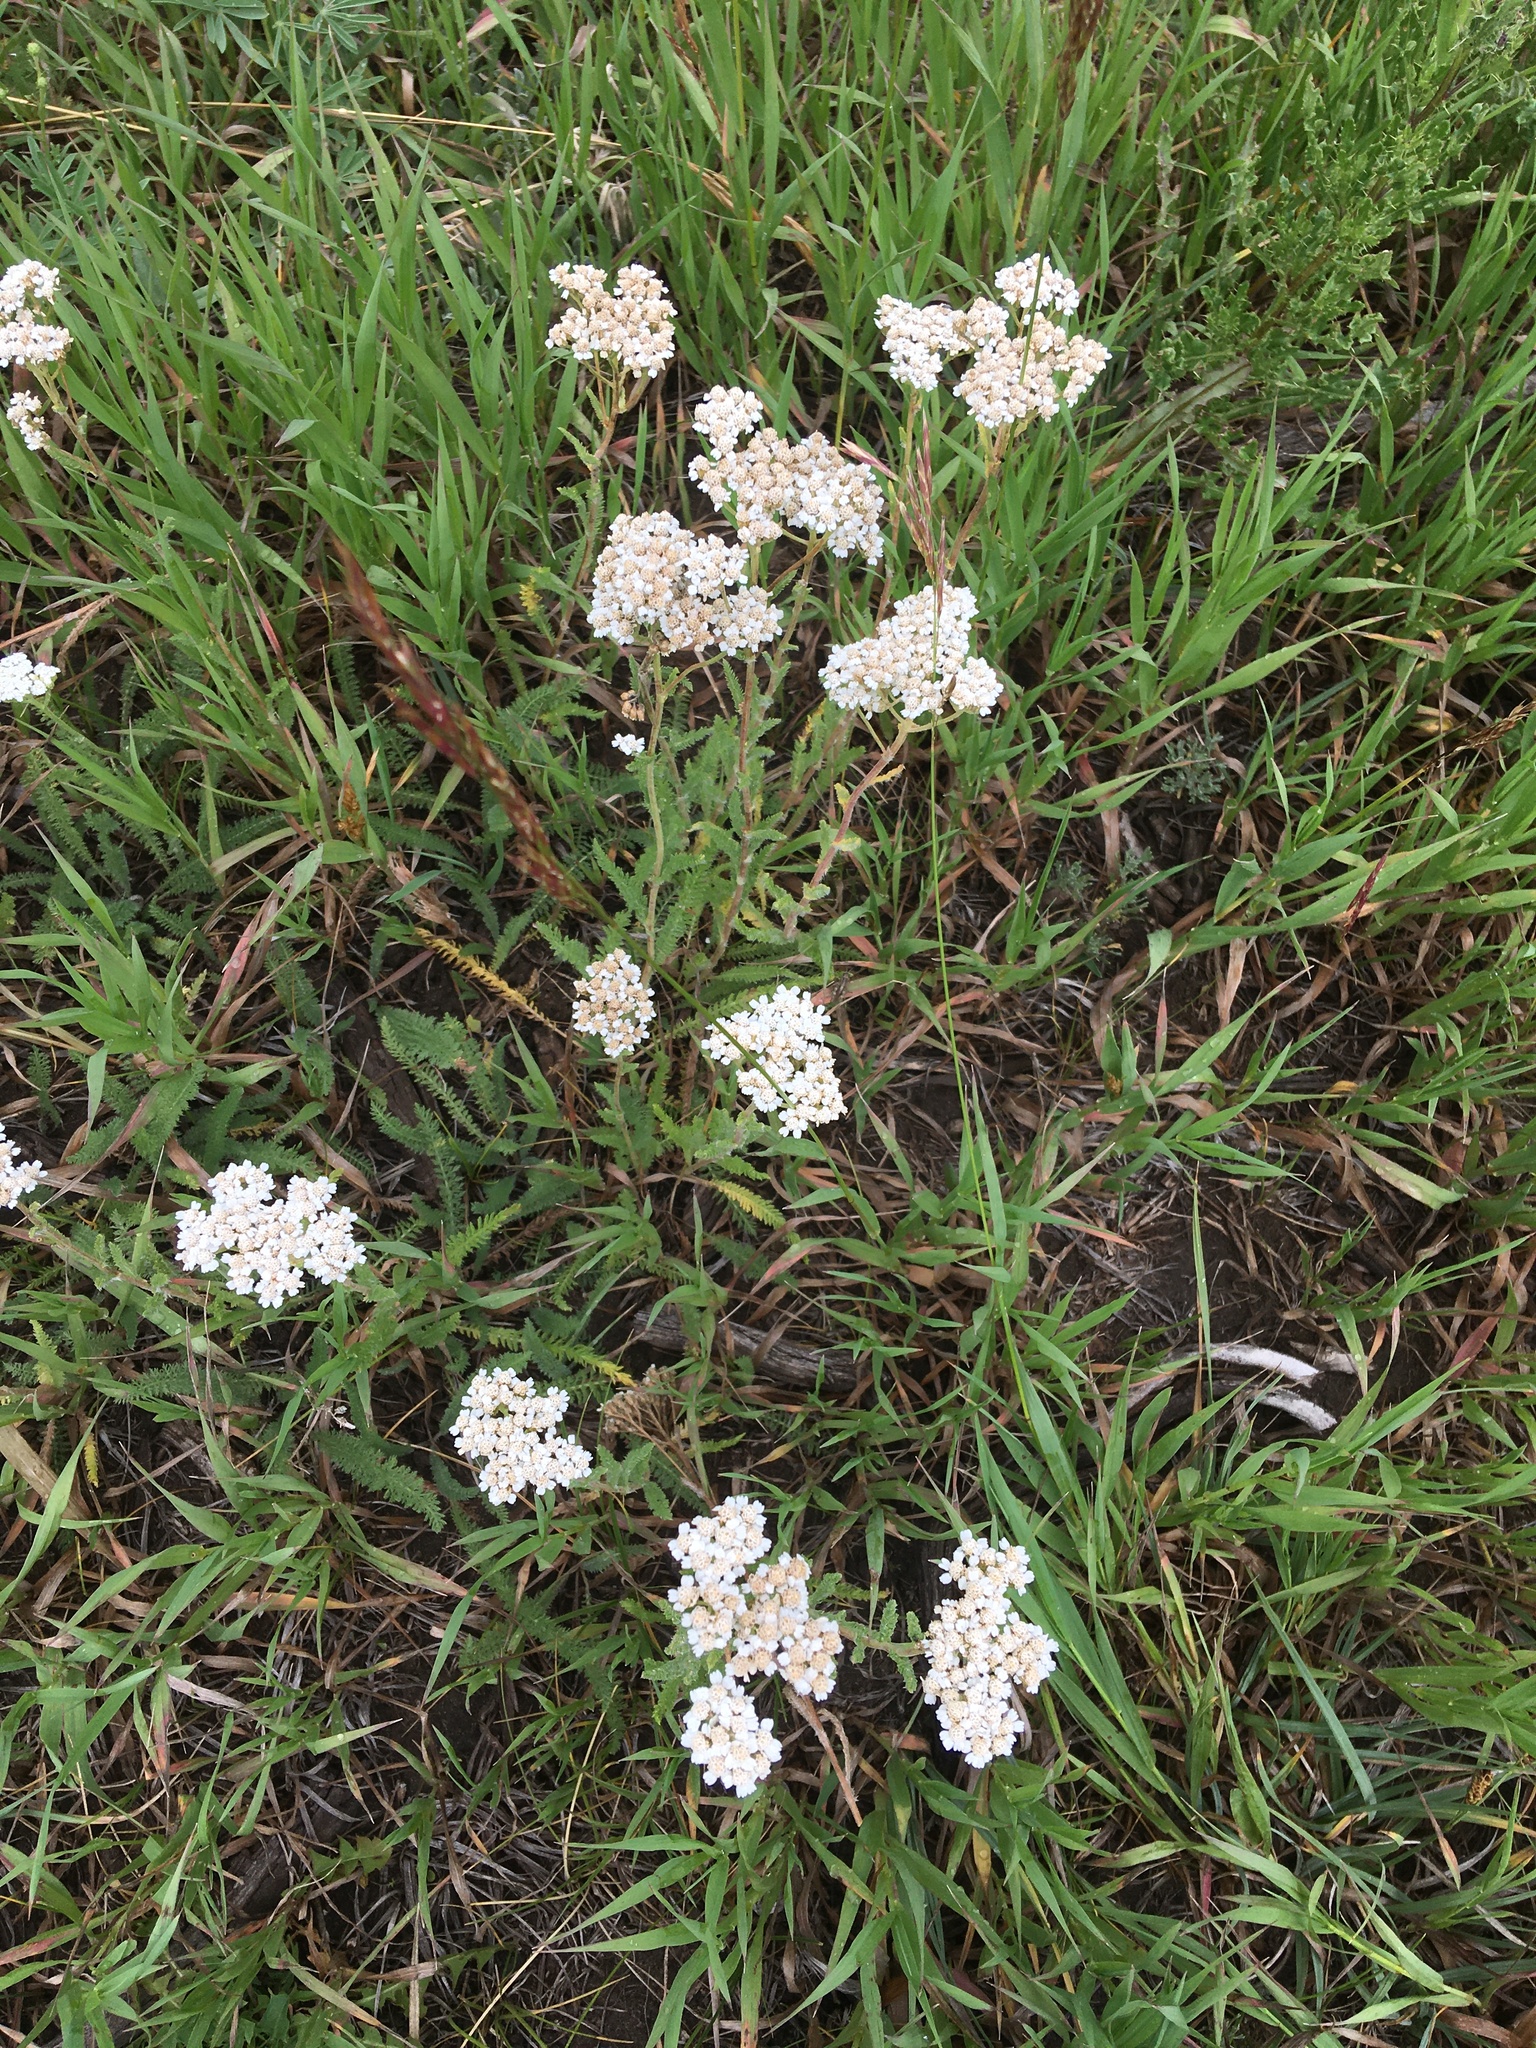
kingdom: Plantae
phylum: Tracheophyta
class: Magnoliopsida
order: Asterales
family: Asteraceae
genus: Achillea
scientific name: Achillea millefolium
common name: Yarrow
